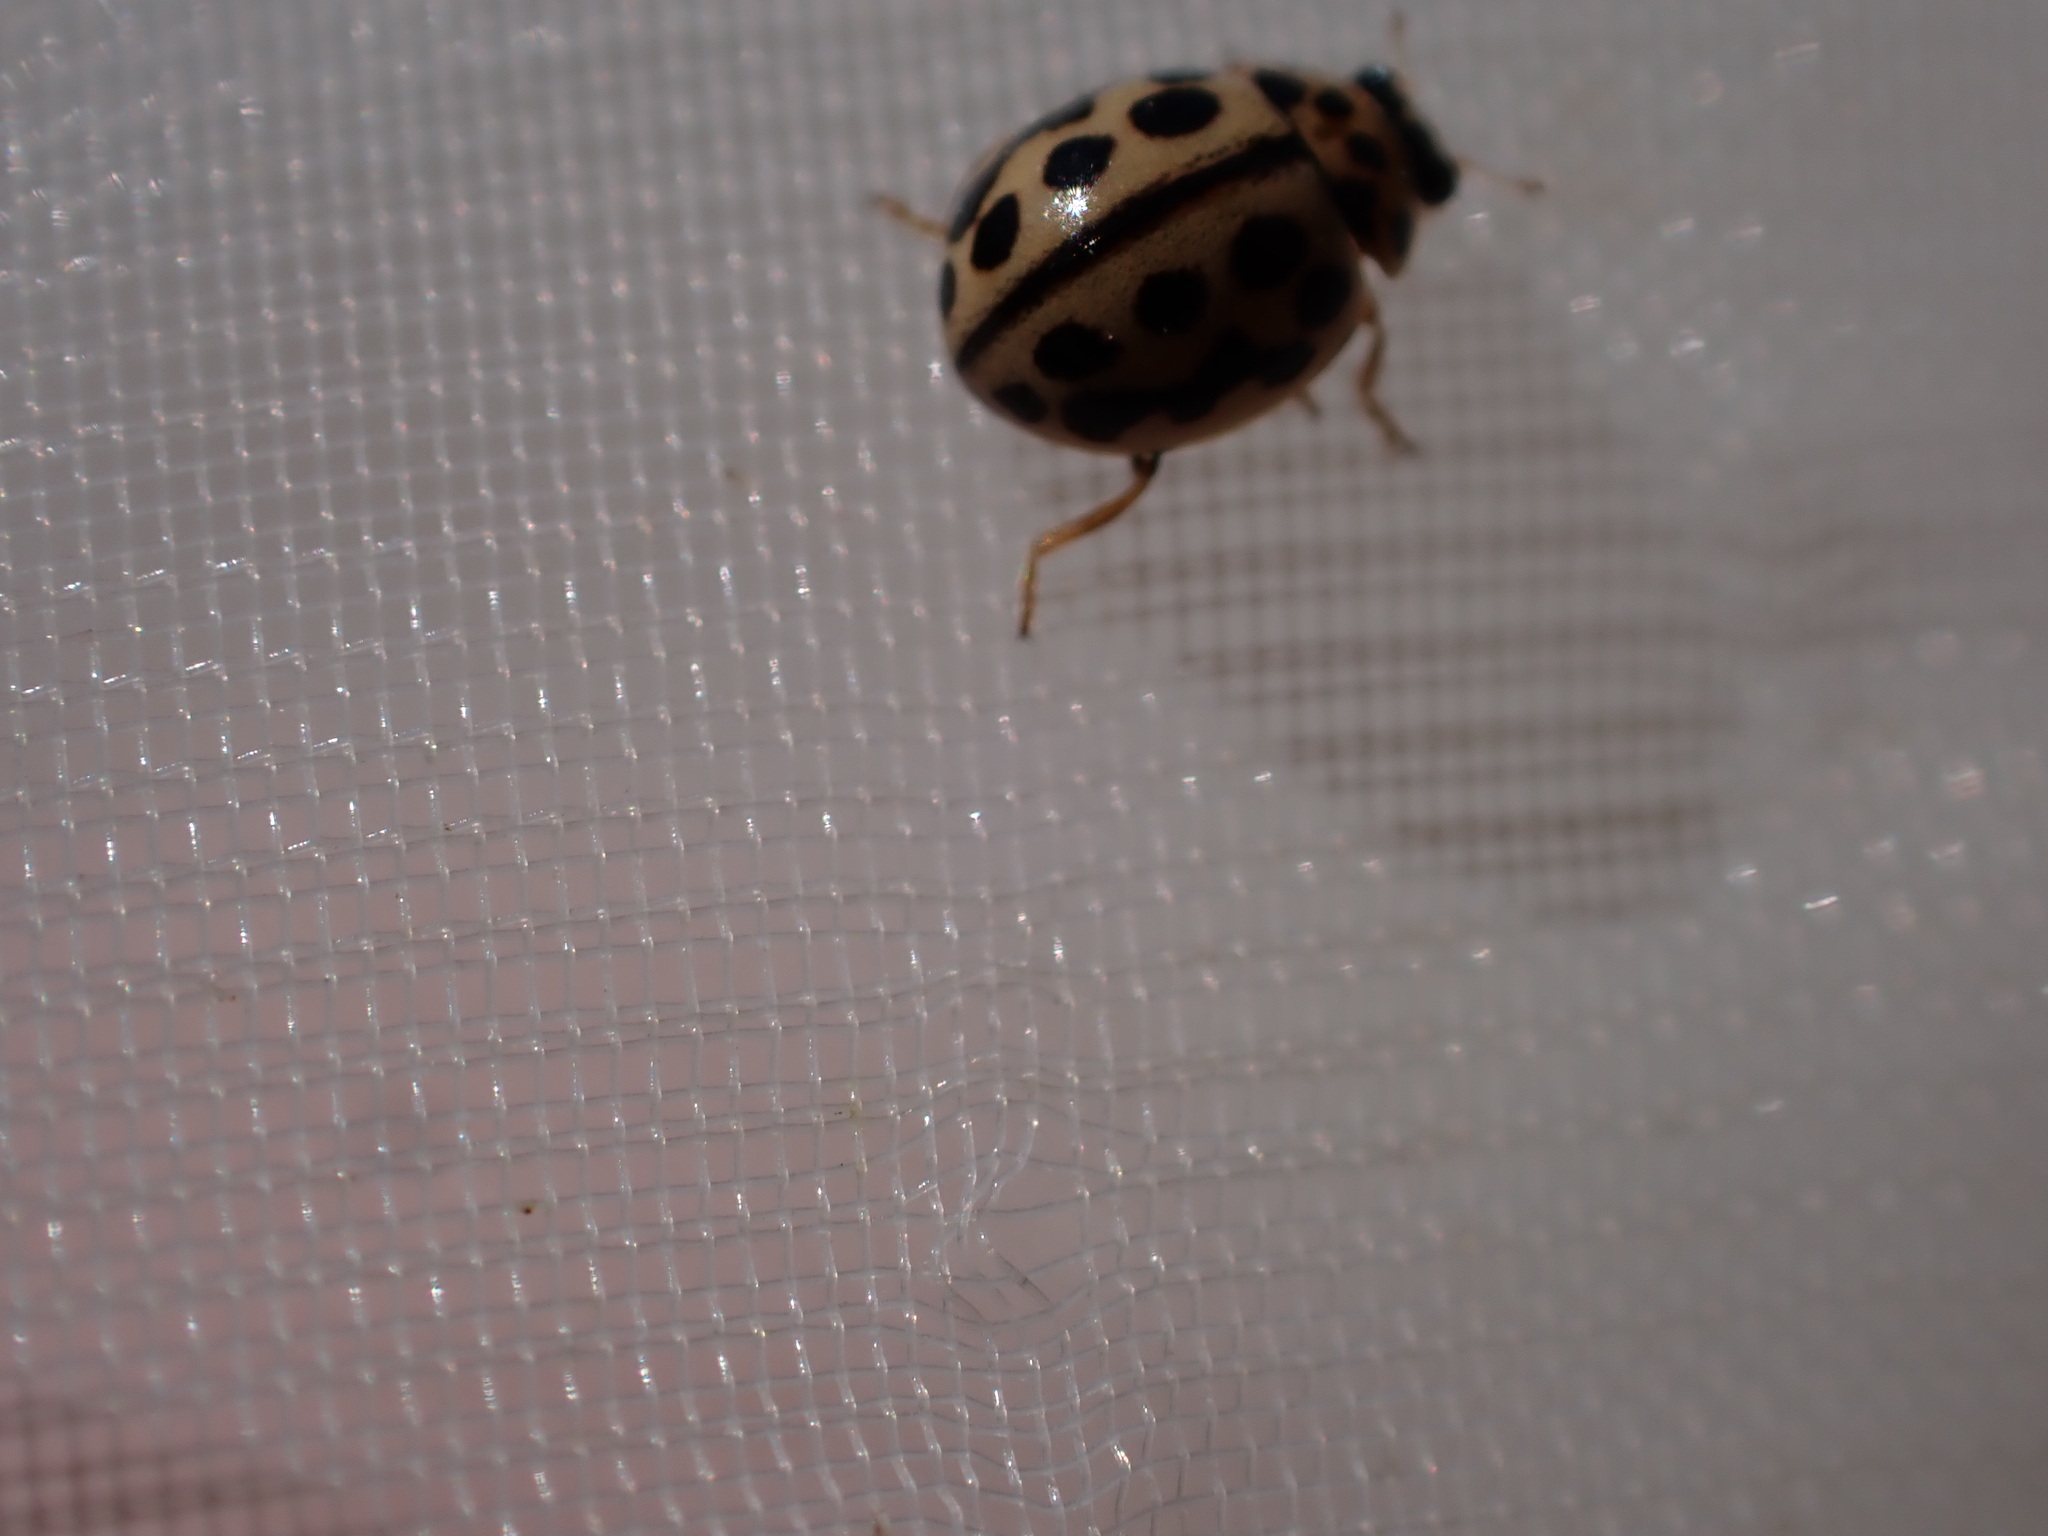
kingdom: Animalia
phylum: Arthropoda
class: Insecta
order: Coleoptera
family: Coccinellidae
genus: Tytthaspis
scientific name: Tytthaspis sedecimpunctata
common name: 16-spot ladybird
